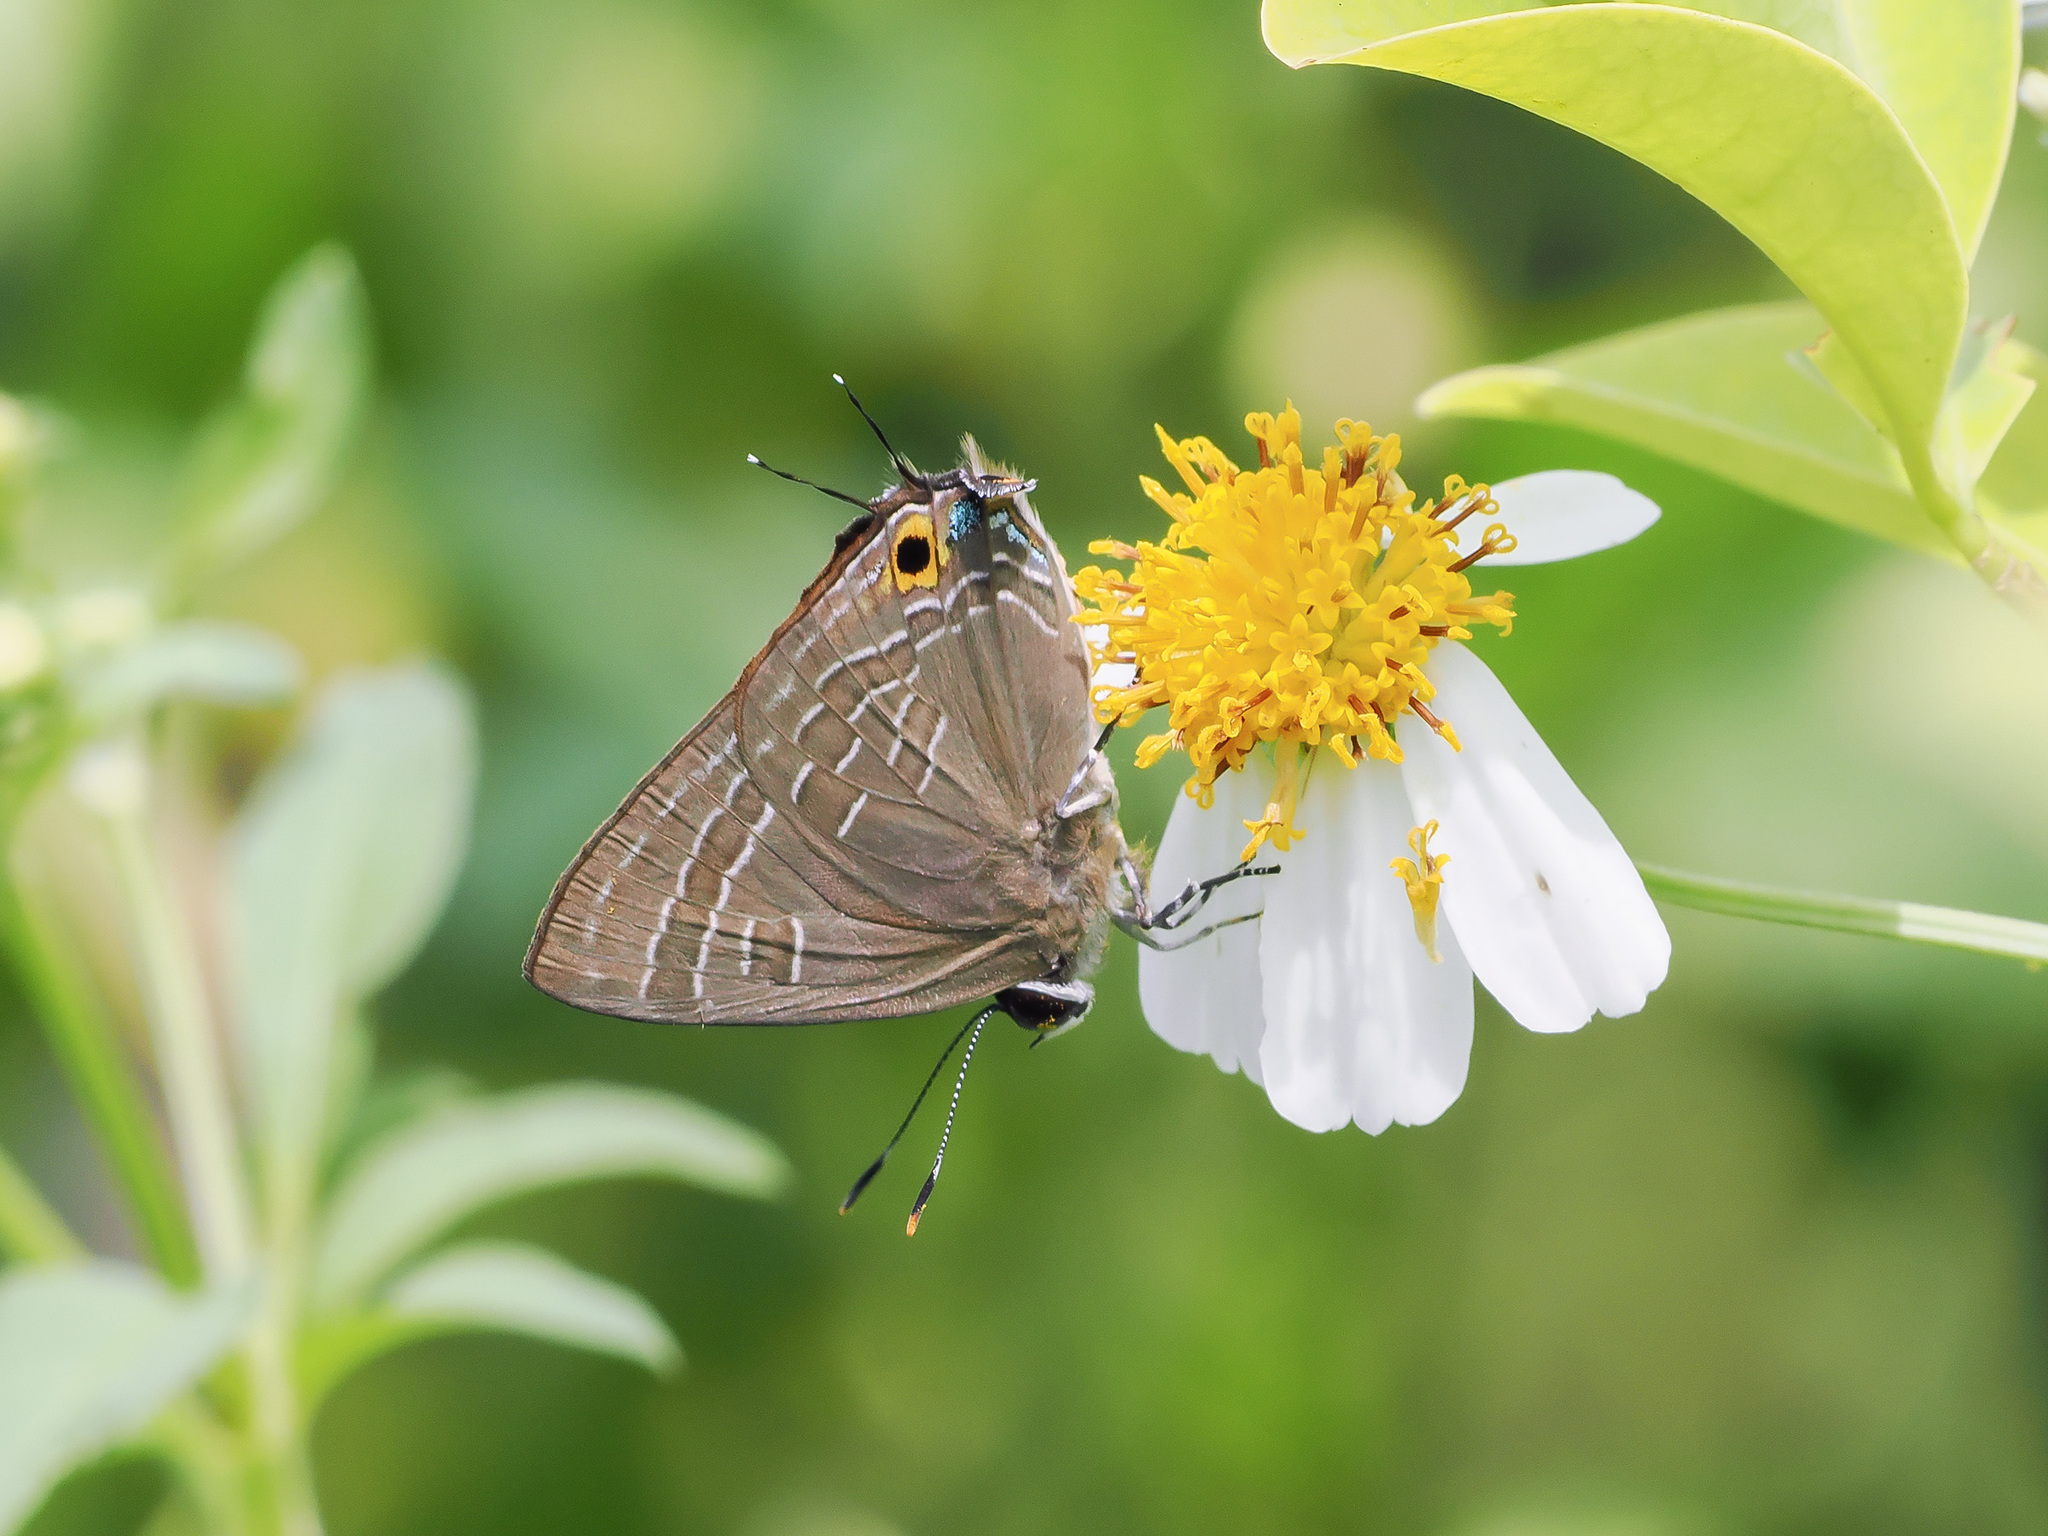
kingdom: Animalia
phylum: Arthropoda
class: Insecta
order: Lepidoptera
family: Lycaenidae
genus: Deudorix
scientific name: Deudorix epijarbas
